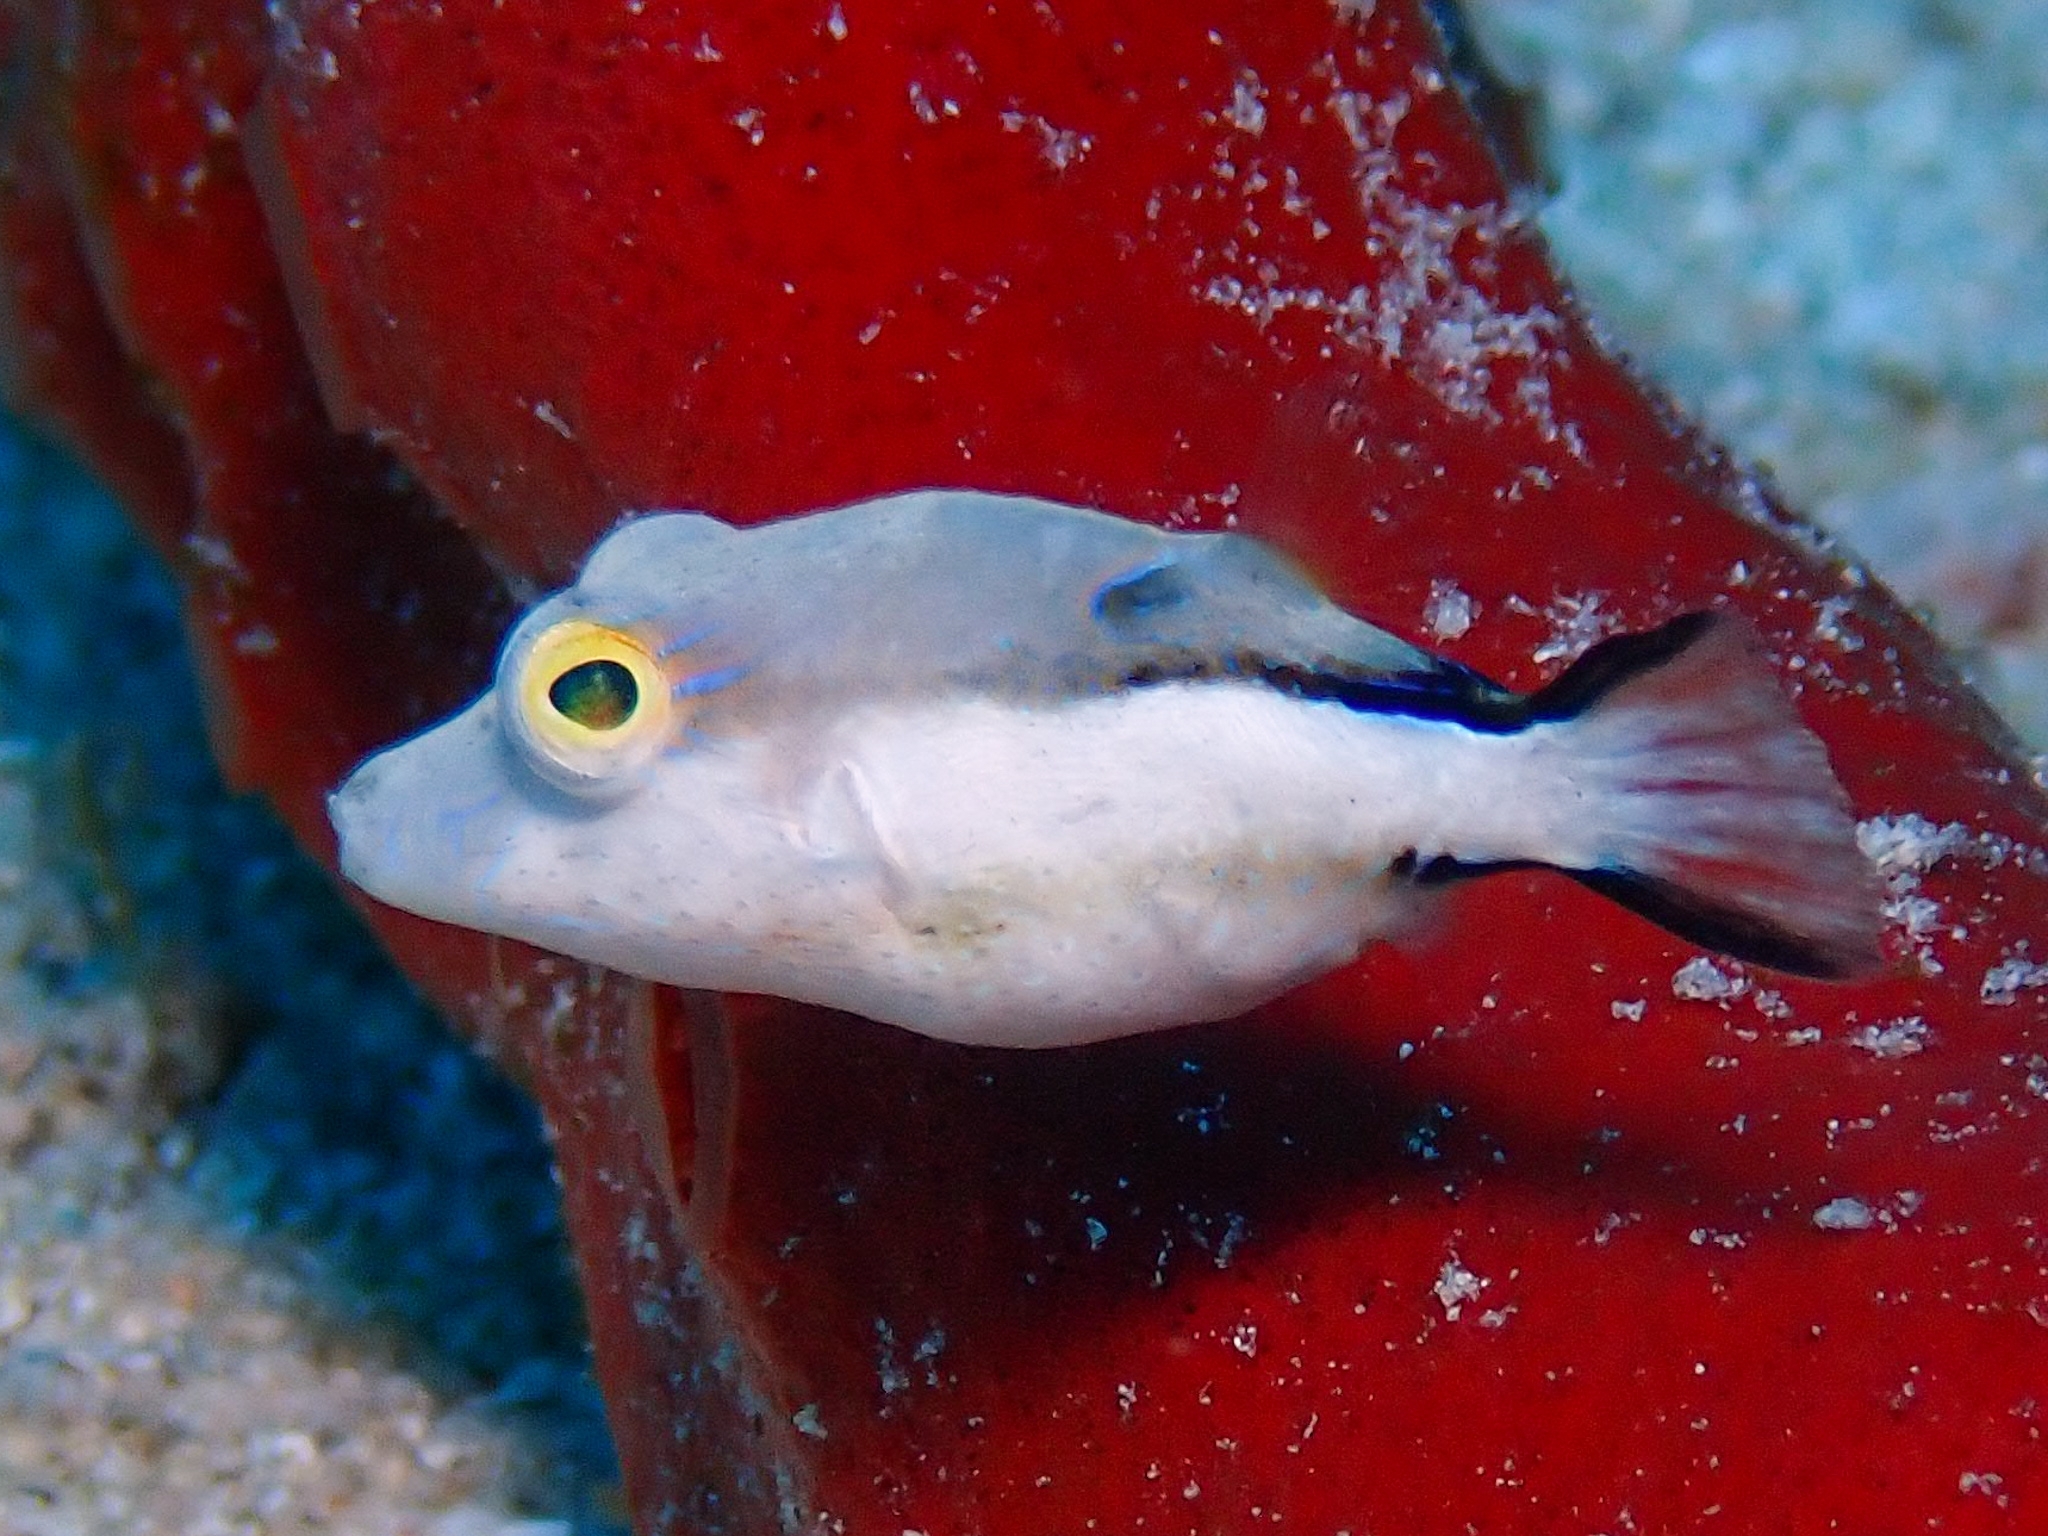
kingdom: Animalia
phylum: Chordata
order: Tetraodontiformes
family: Tetraodontidae
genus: Canthigaster
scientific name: Canthigaster rostrata
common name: Caribbean sharpnose-puffer
